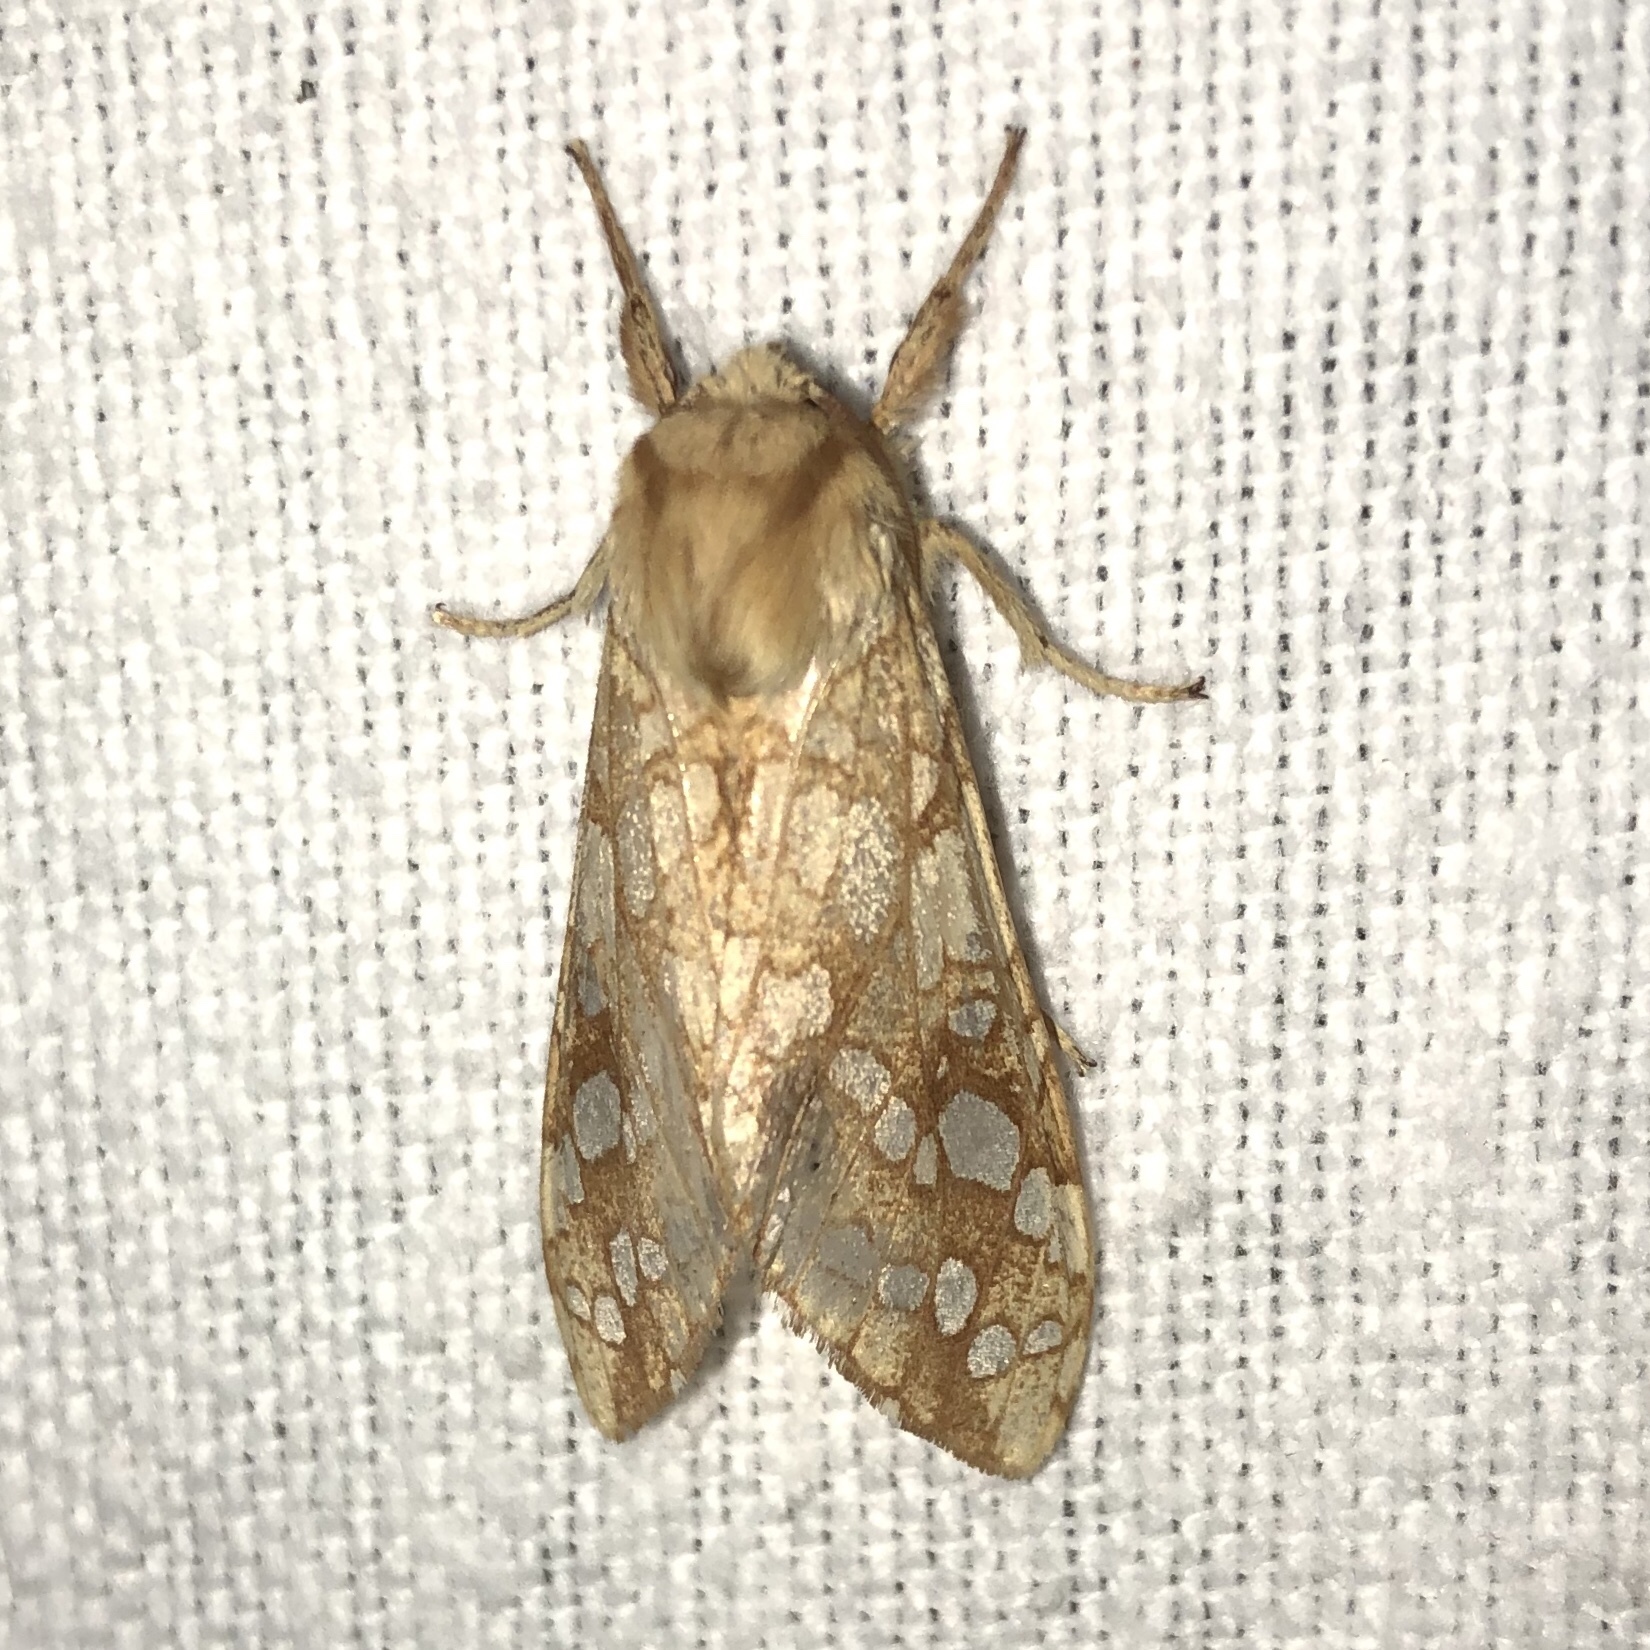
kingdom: Animalia
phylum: Arthropoda
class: Insecta
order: Lepidoptera
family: Erebidae
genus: Lophocampa
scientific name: Lophocampa caryae
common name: Hickory tussock moth
